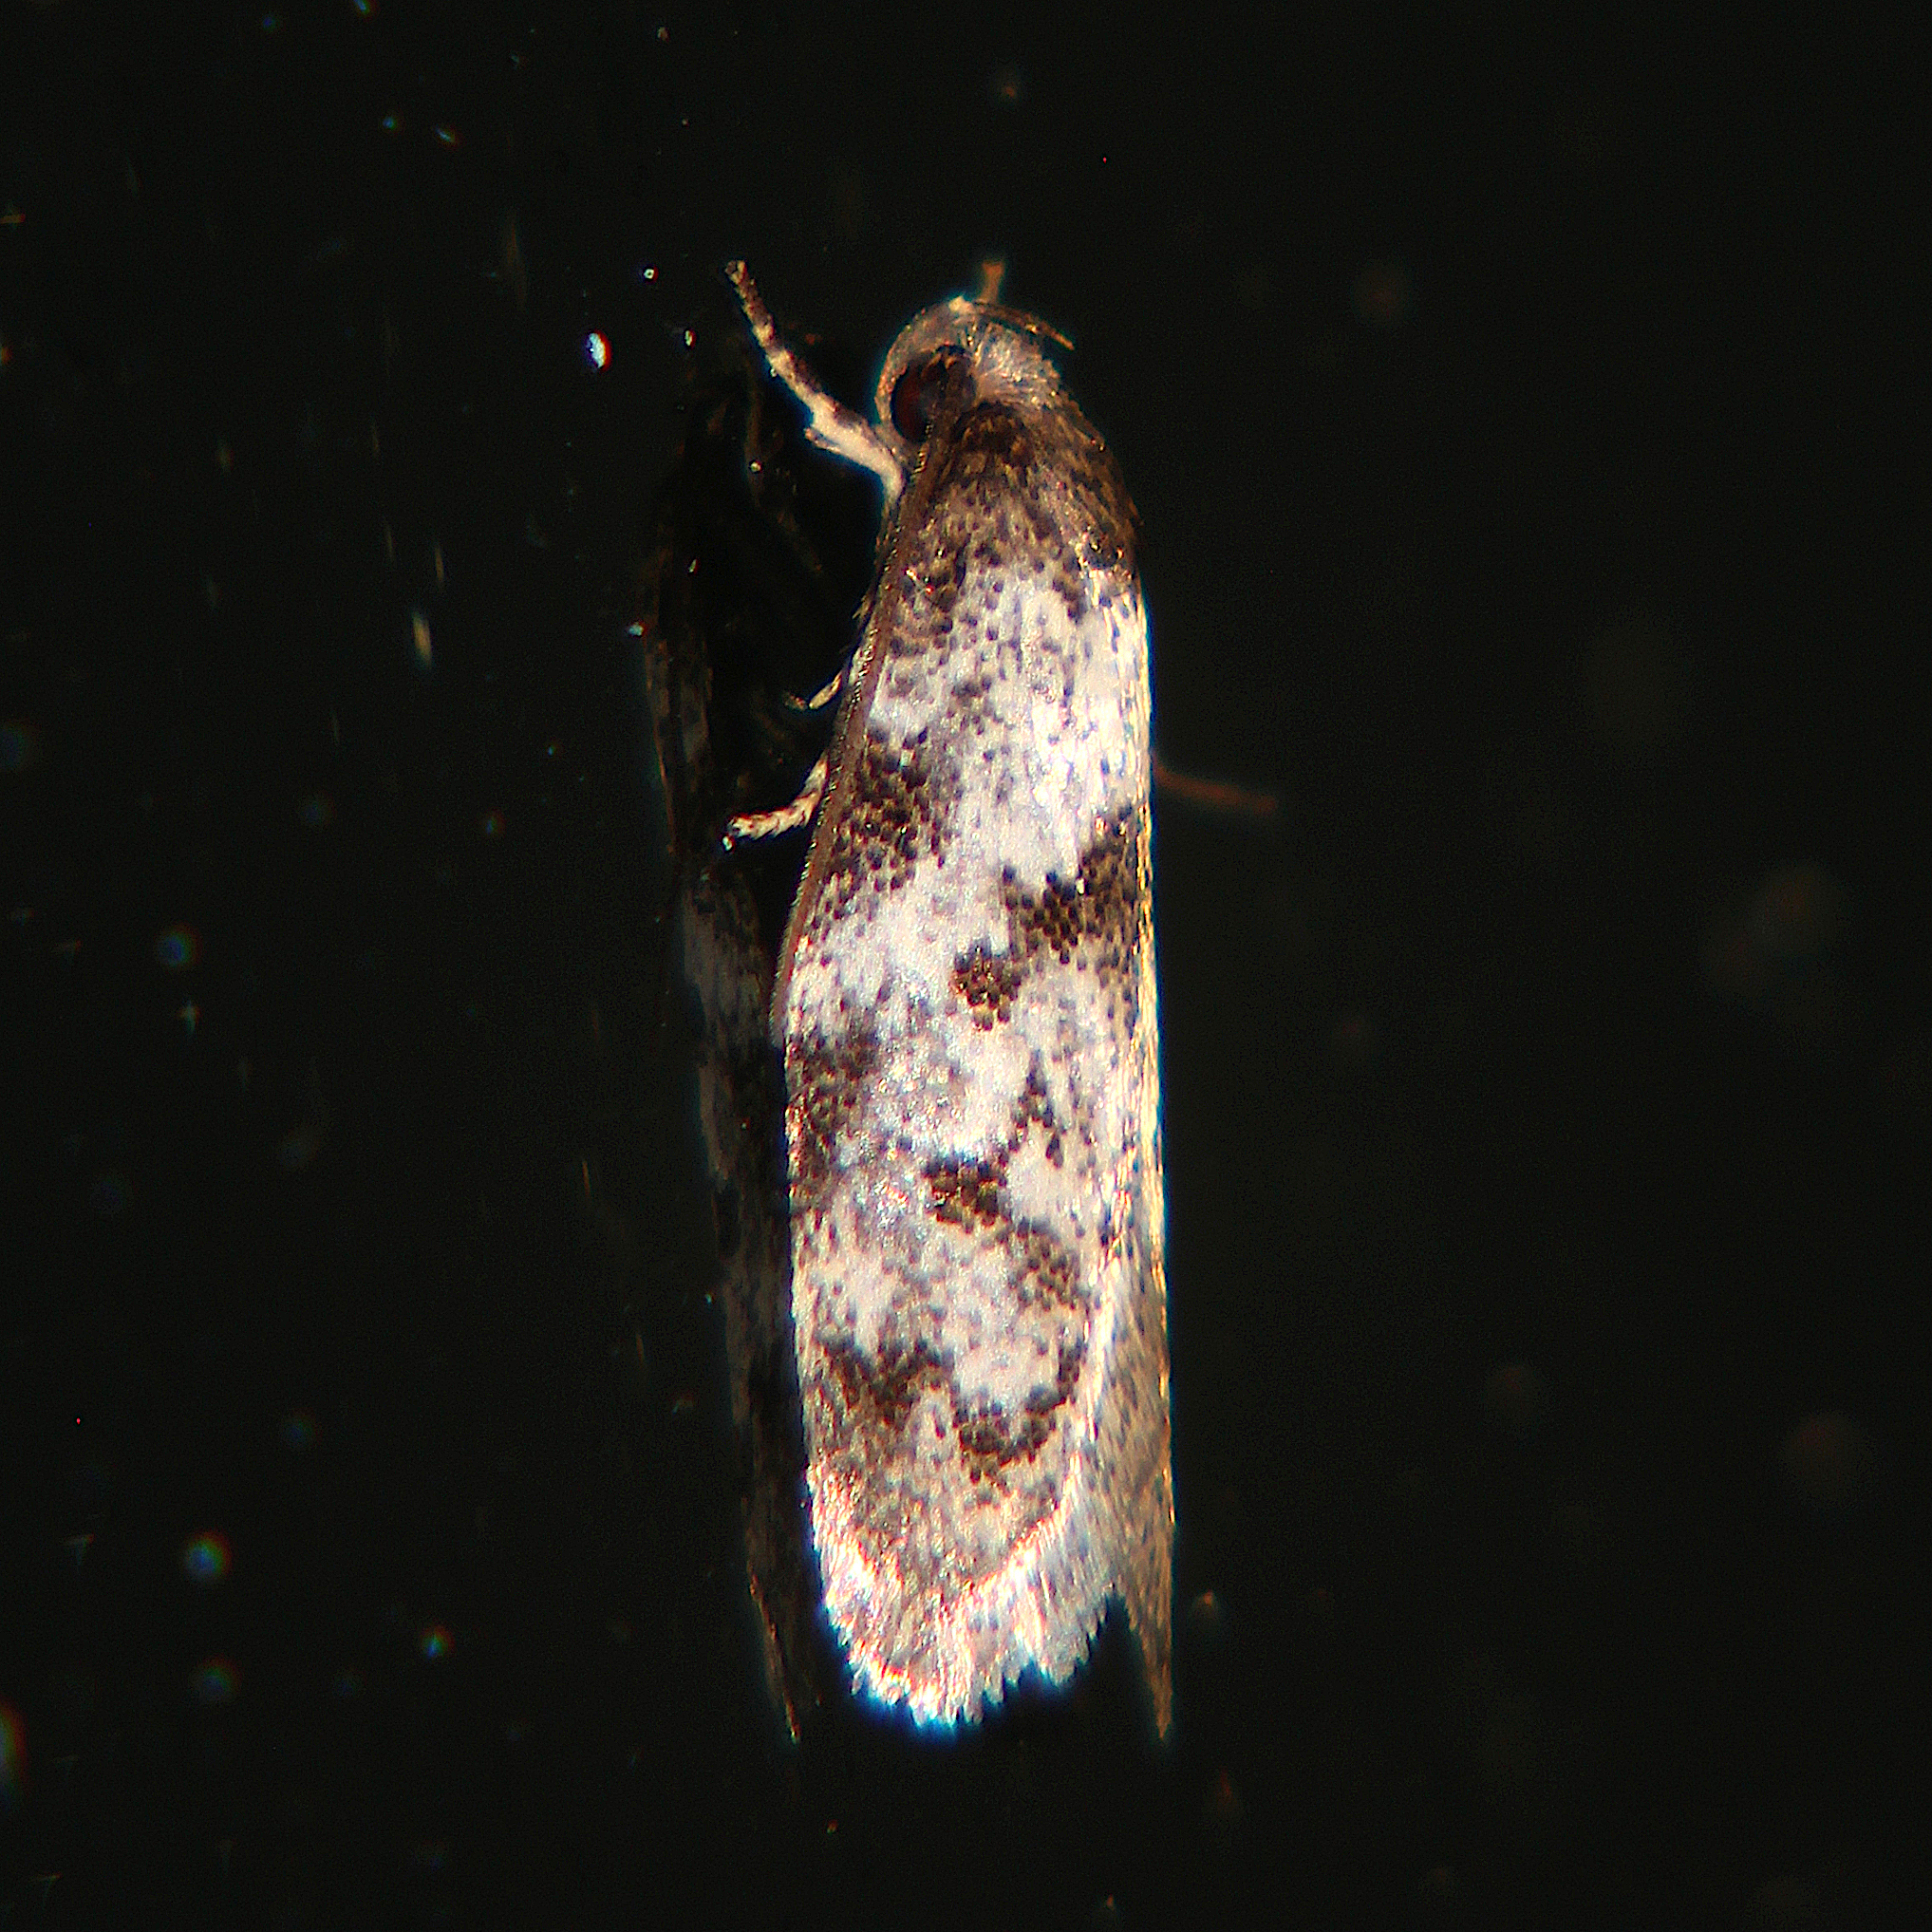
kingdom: Animalia
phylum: Arthropoda
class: Insecta
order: Lepidoptera
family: Oecophoridae
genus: Tingena
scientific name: Tingena clarkei
